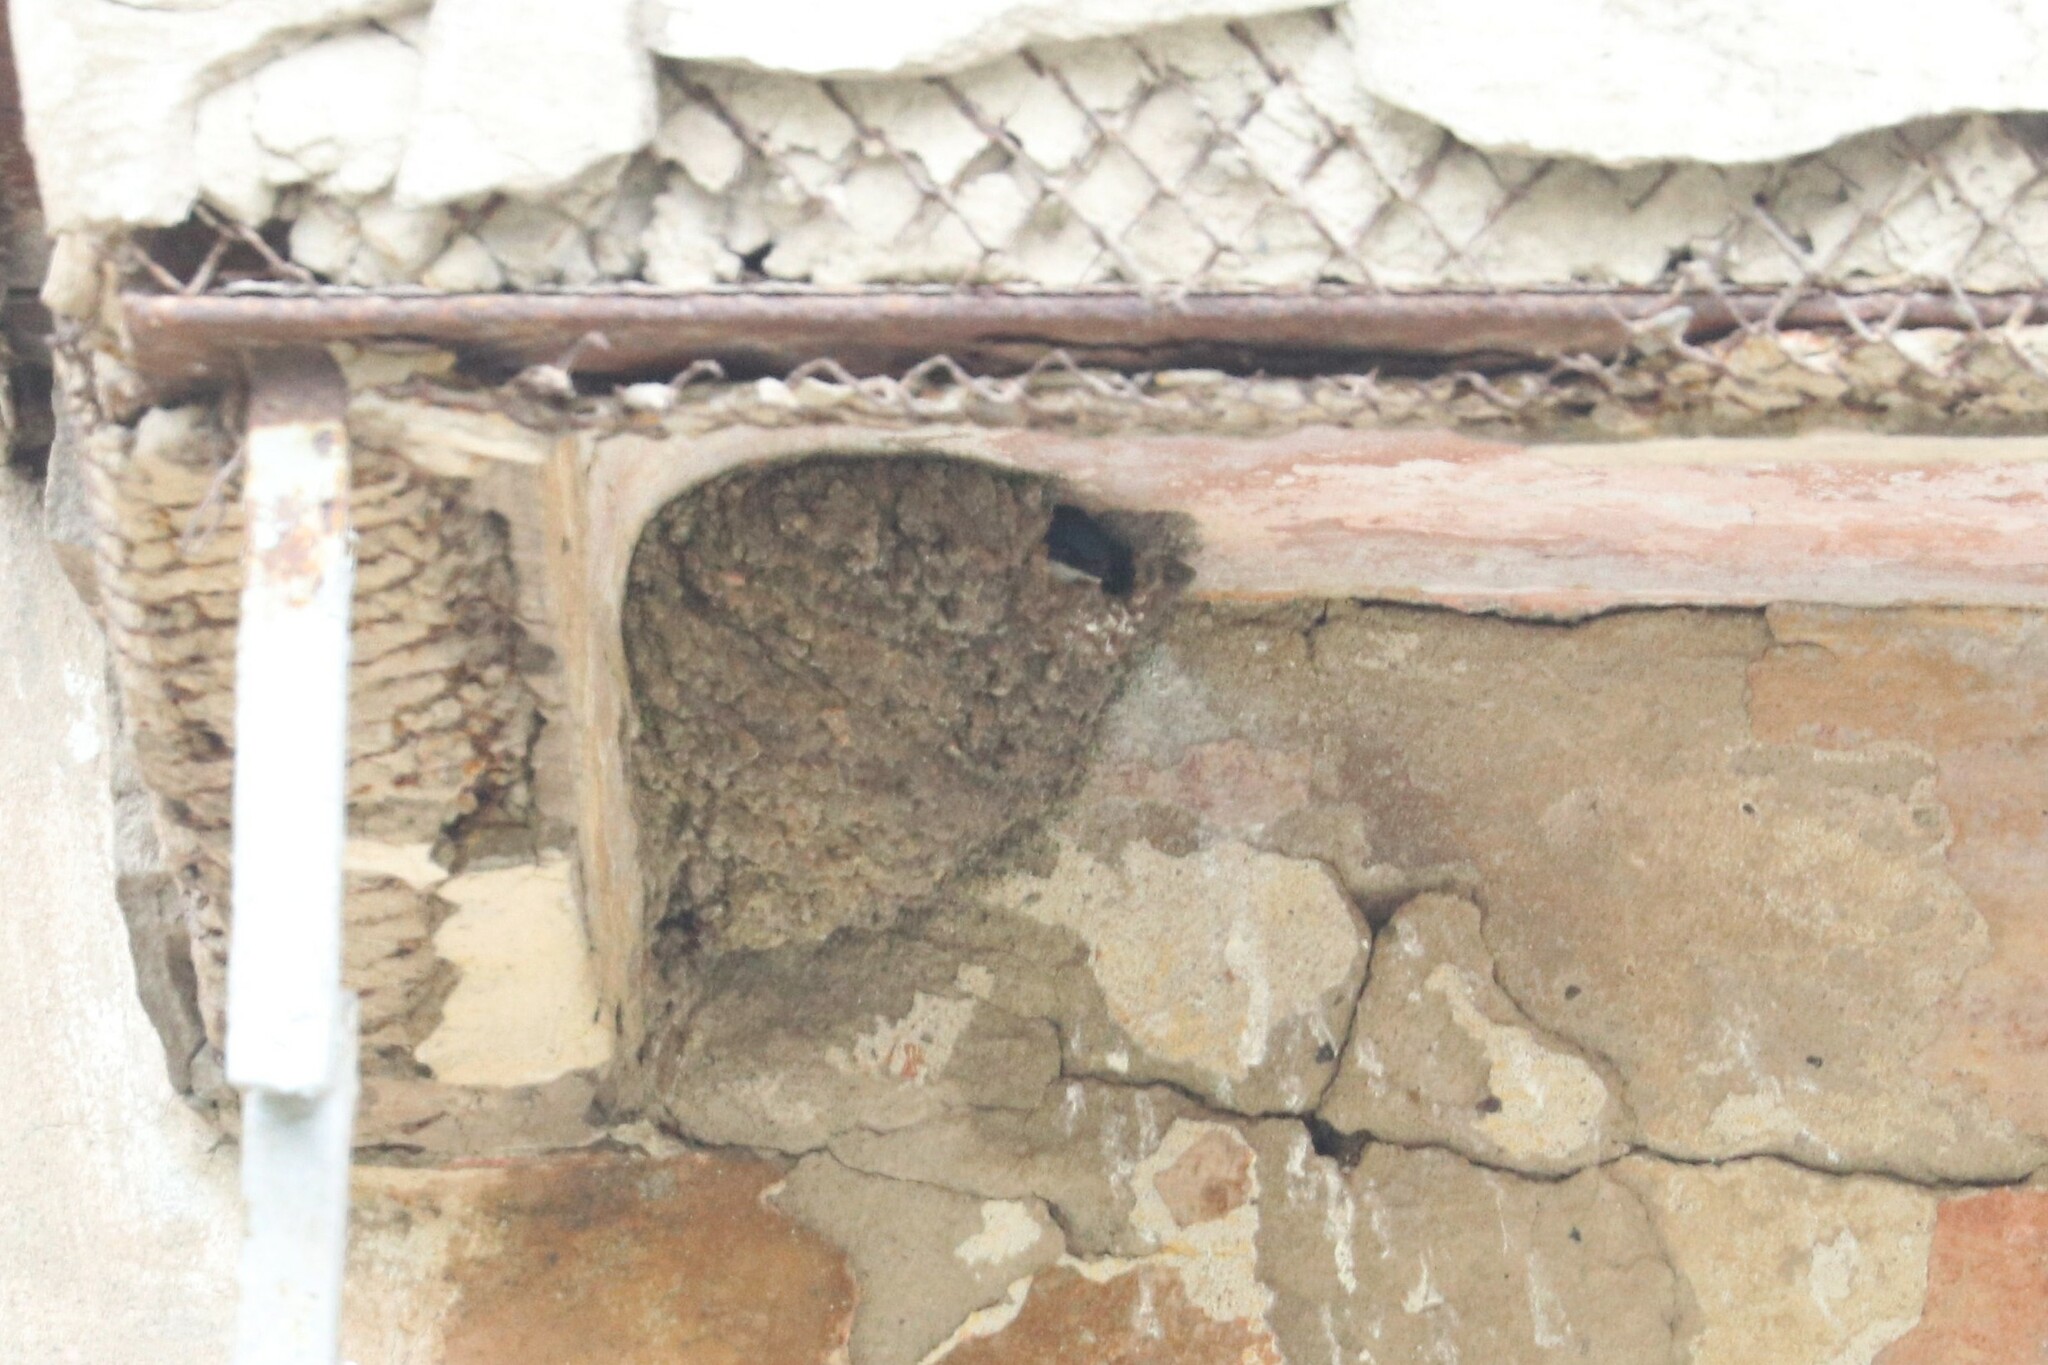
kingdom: Animalia
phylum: Chordata
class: Aves
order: Passeriformes
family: Hirundinidae
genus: Delichon
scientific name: Delichon urbicum
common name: Common house martin
